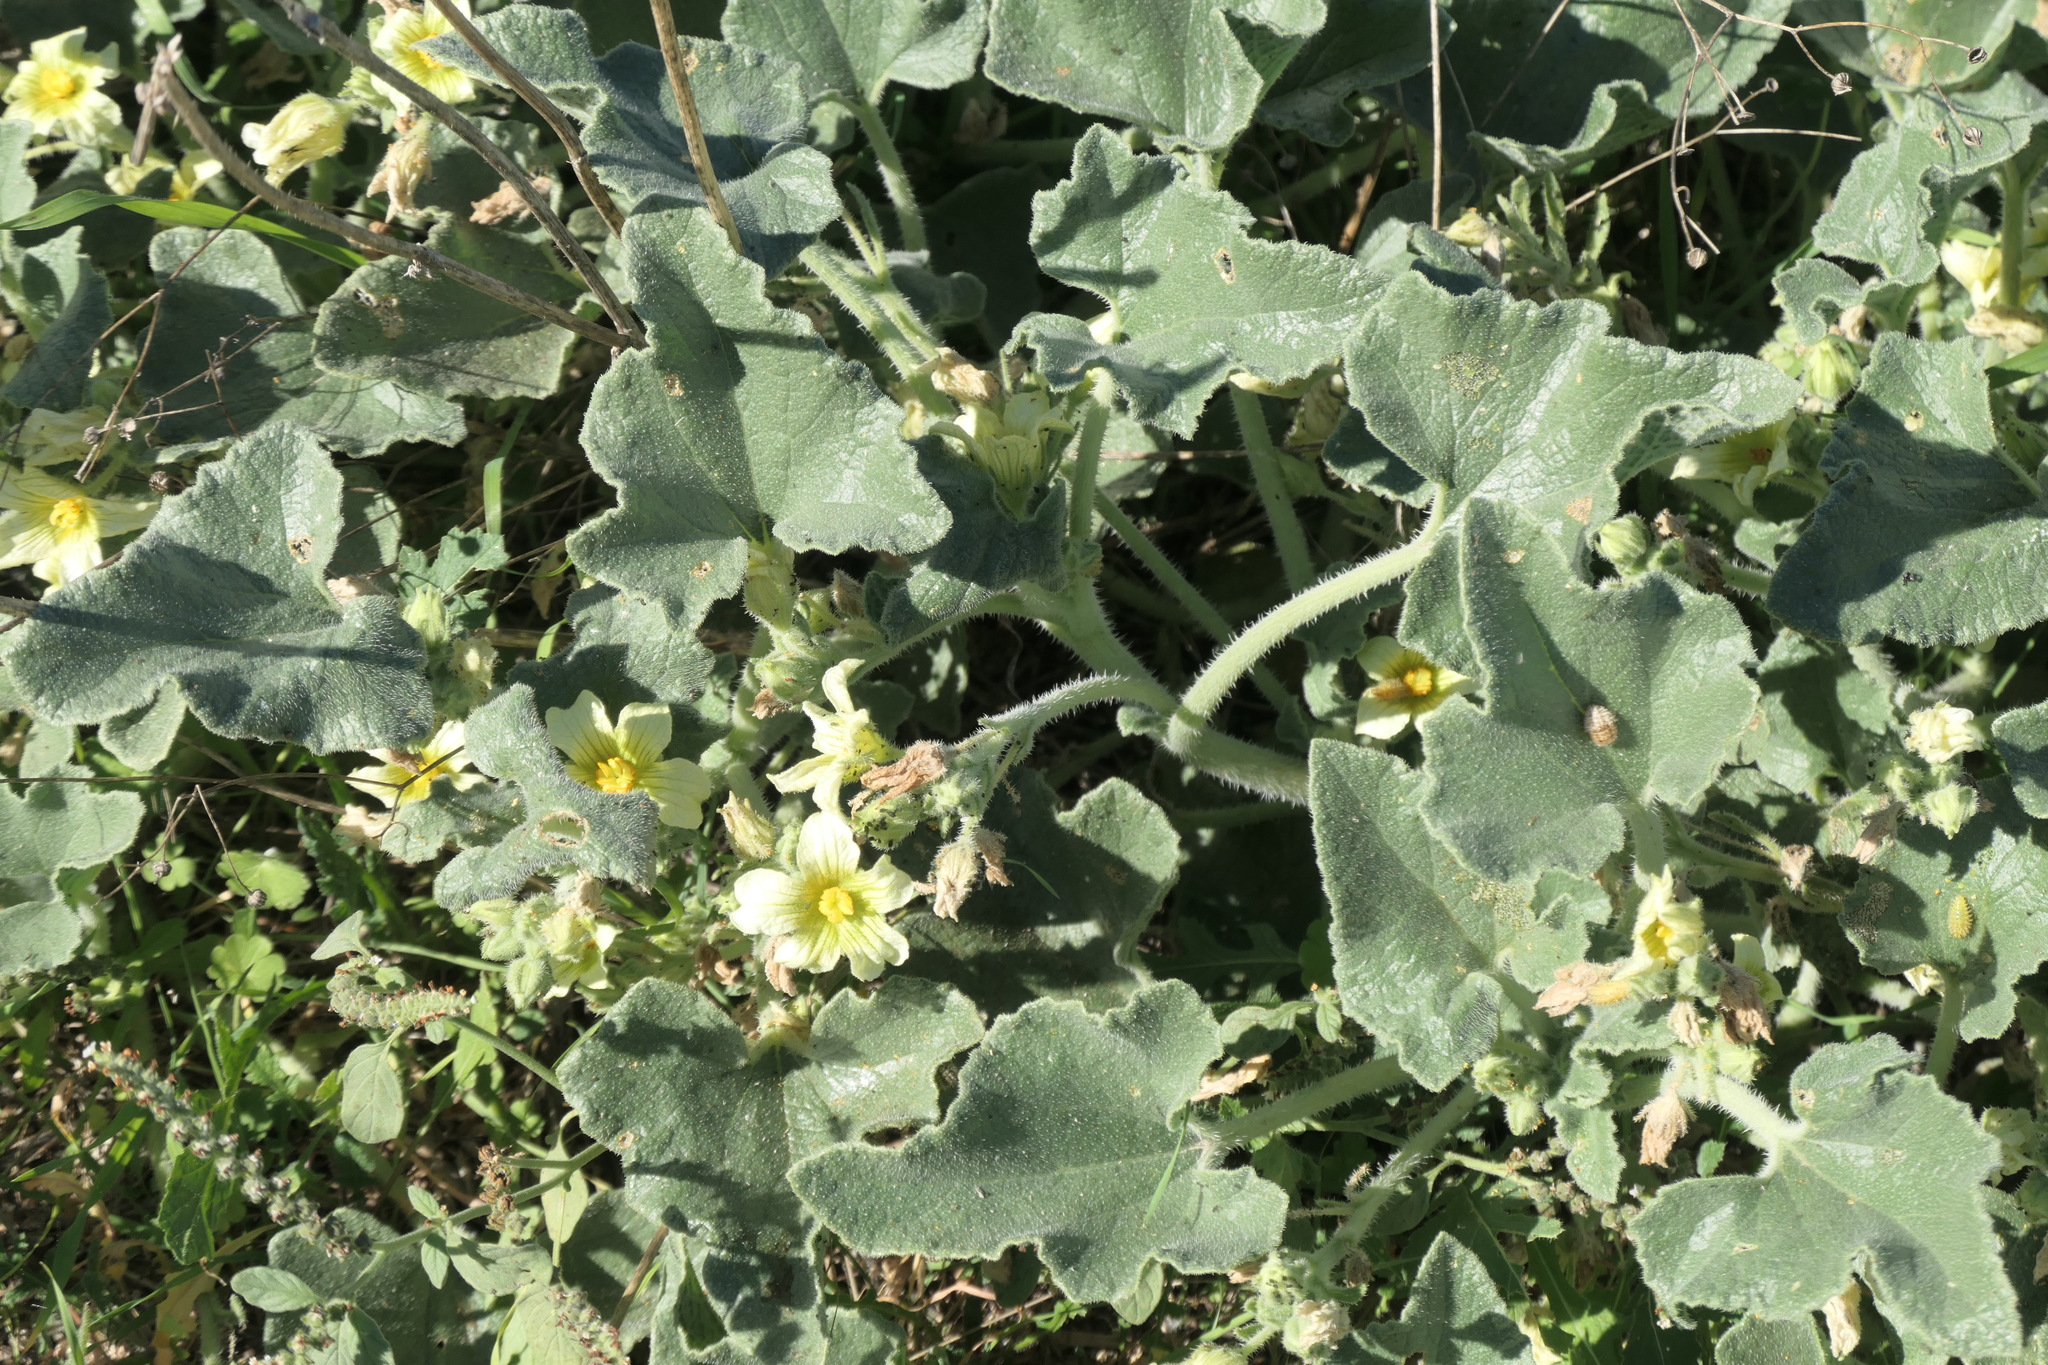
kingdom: Plantae
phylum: Tracheophyta
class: Magnoliopsida
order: Cucurbitales
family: Cucurbitaceae
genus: Ecballium
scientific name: Ecballium elaterium
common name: Squirting cucumber
